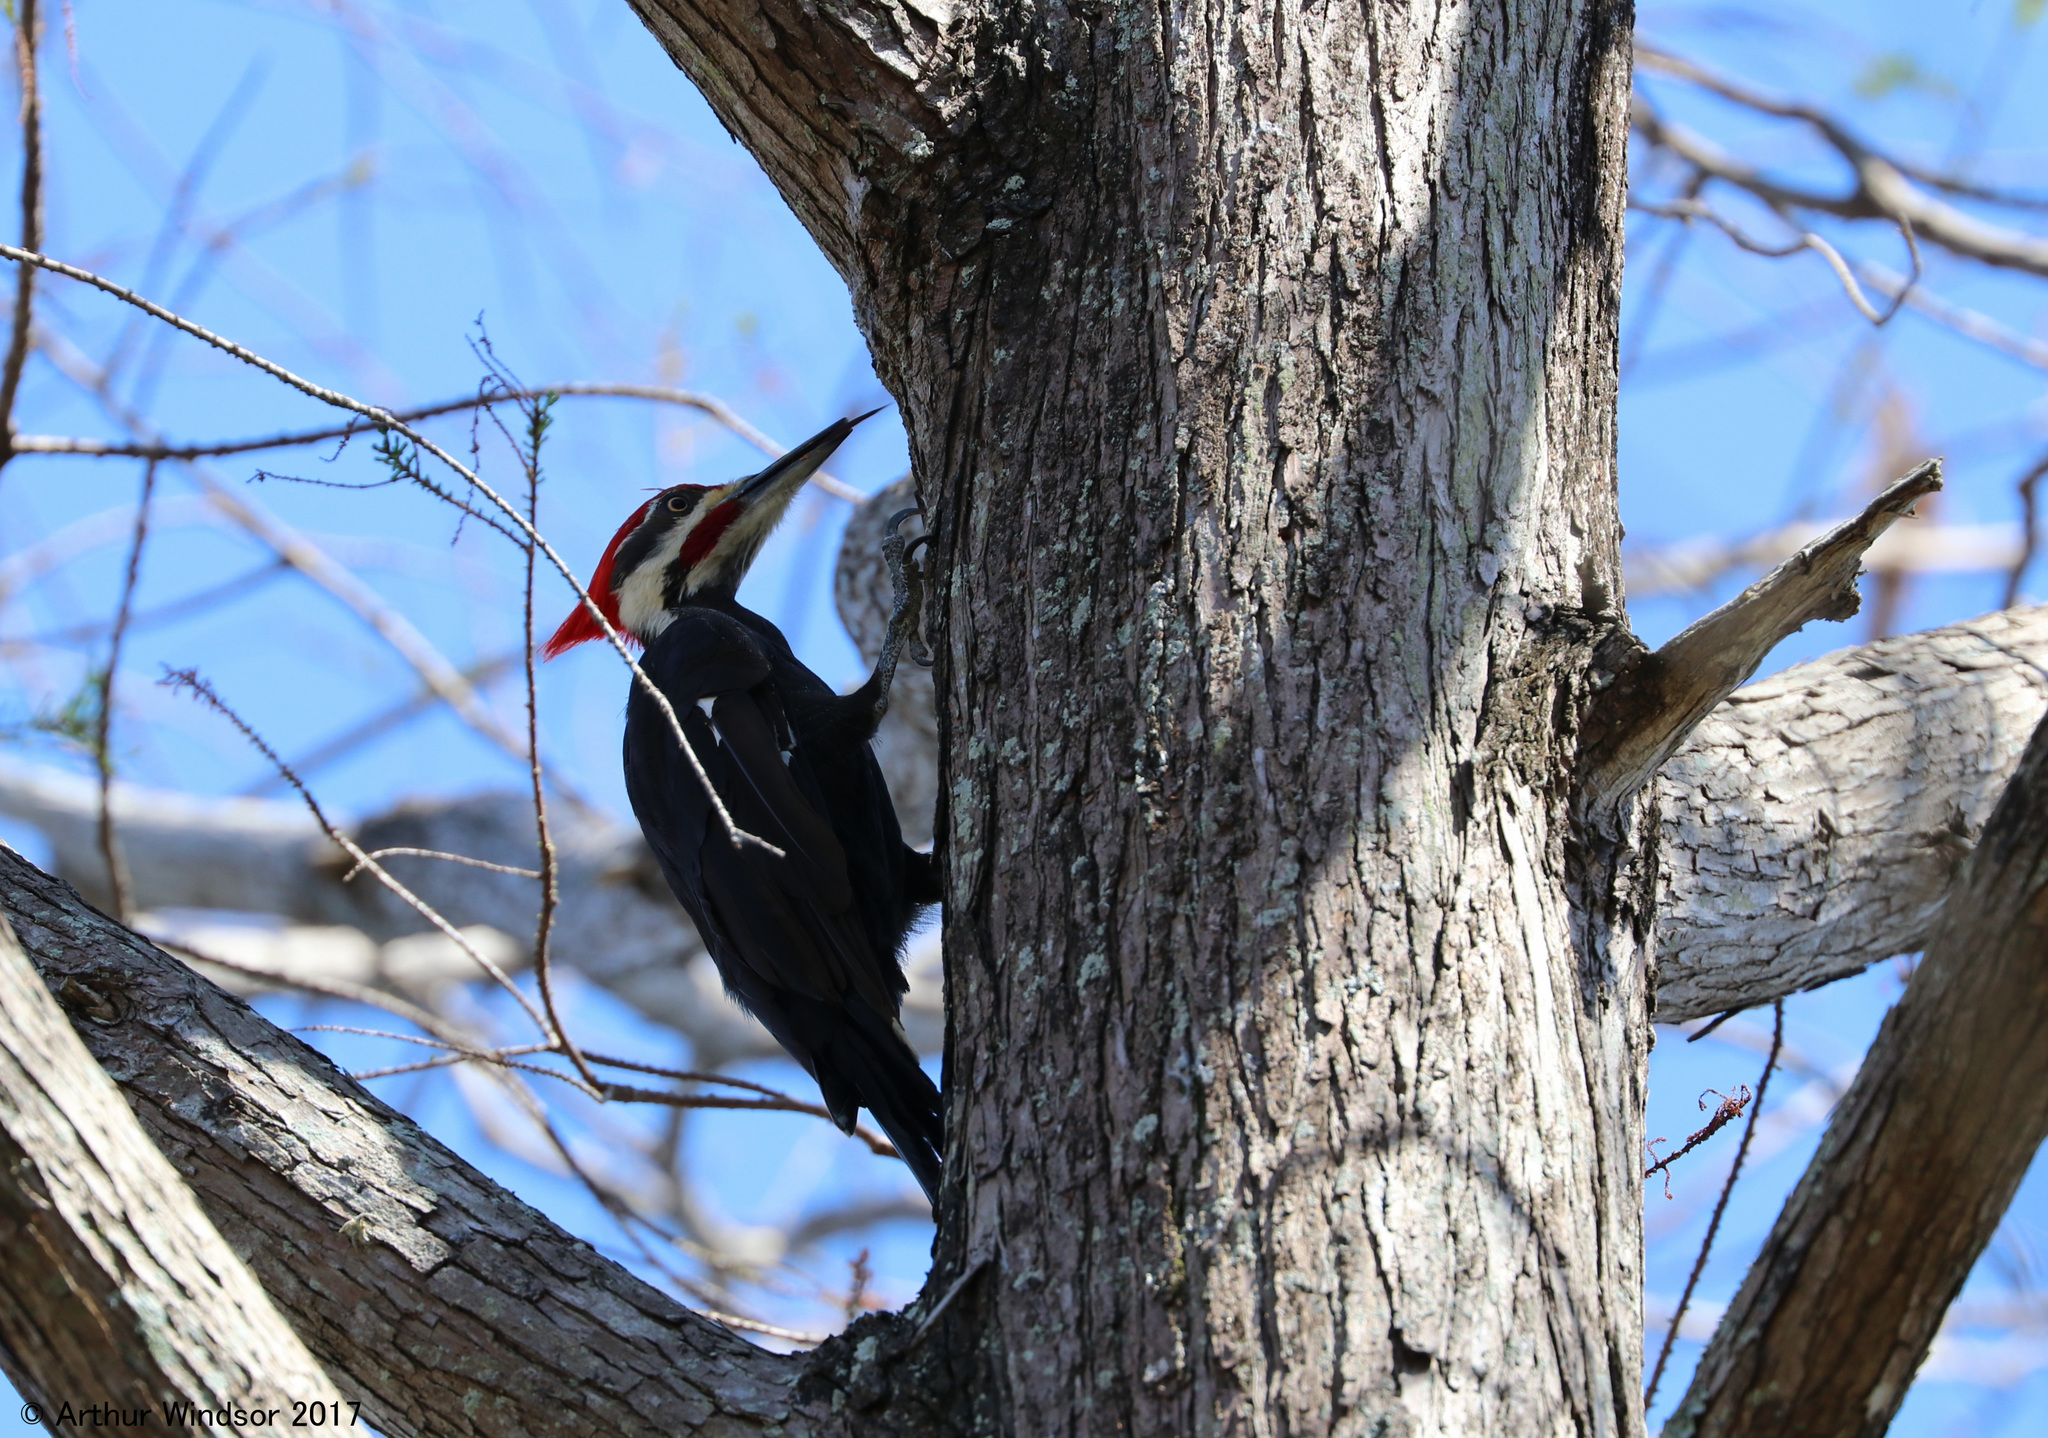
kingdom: Animalia
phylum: Chordata
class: Aves
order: Piciformes
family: Picidae
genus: Dryocopus
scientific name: Dryocopus pileatus
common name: Pileated woodpecker
